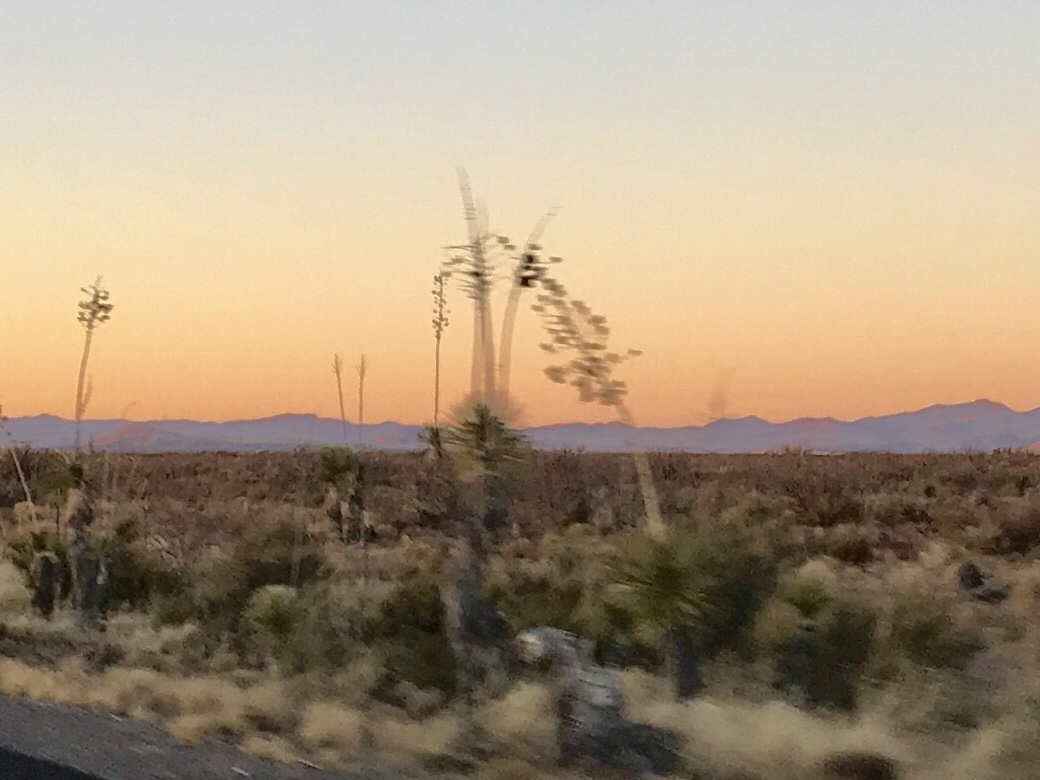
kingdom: Plantae
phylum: Tracheophyta
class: Liliopsida
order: Asparagales
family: Asparagaceae
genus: Yucca
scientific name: Yucca elata
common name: Palmella
